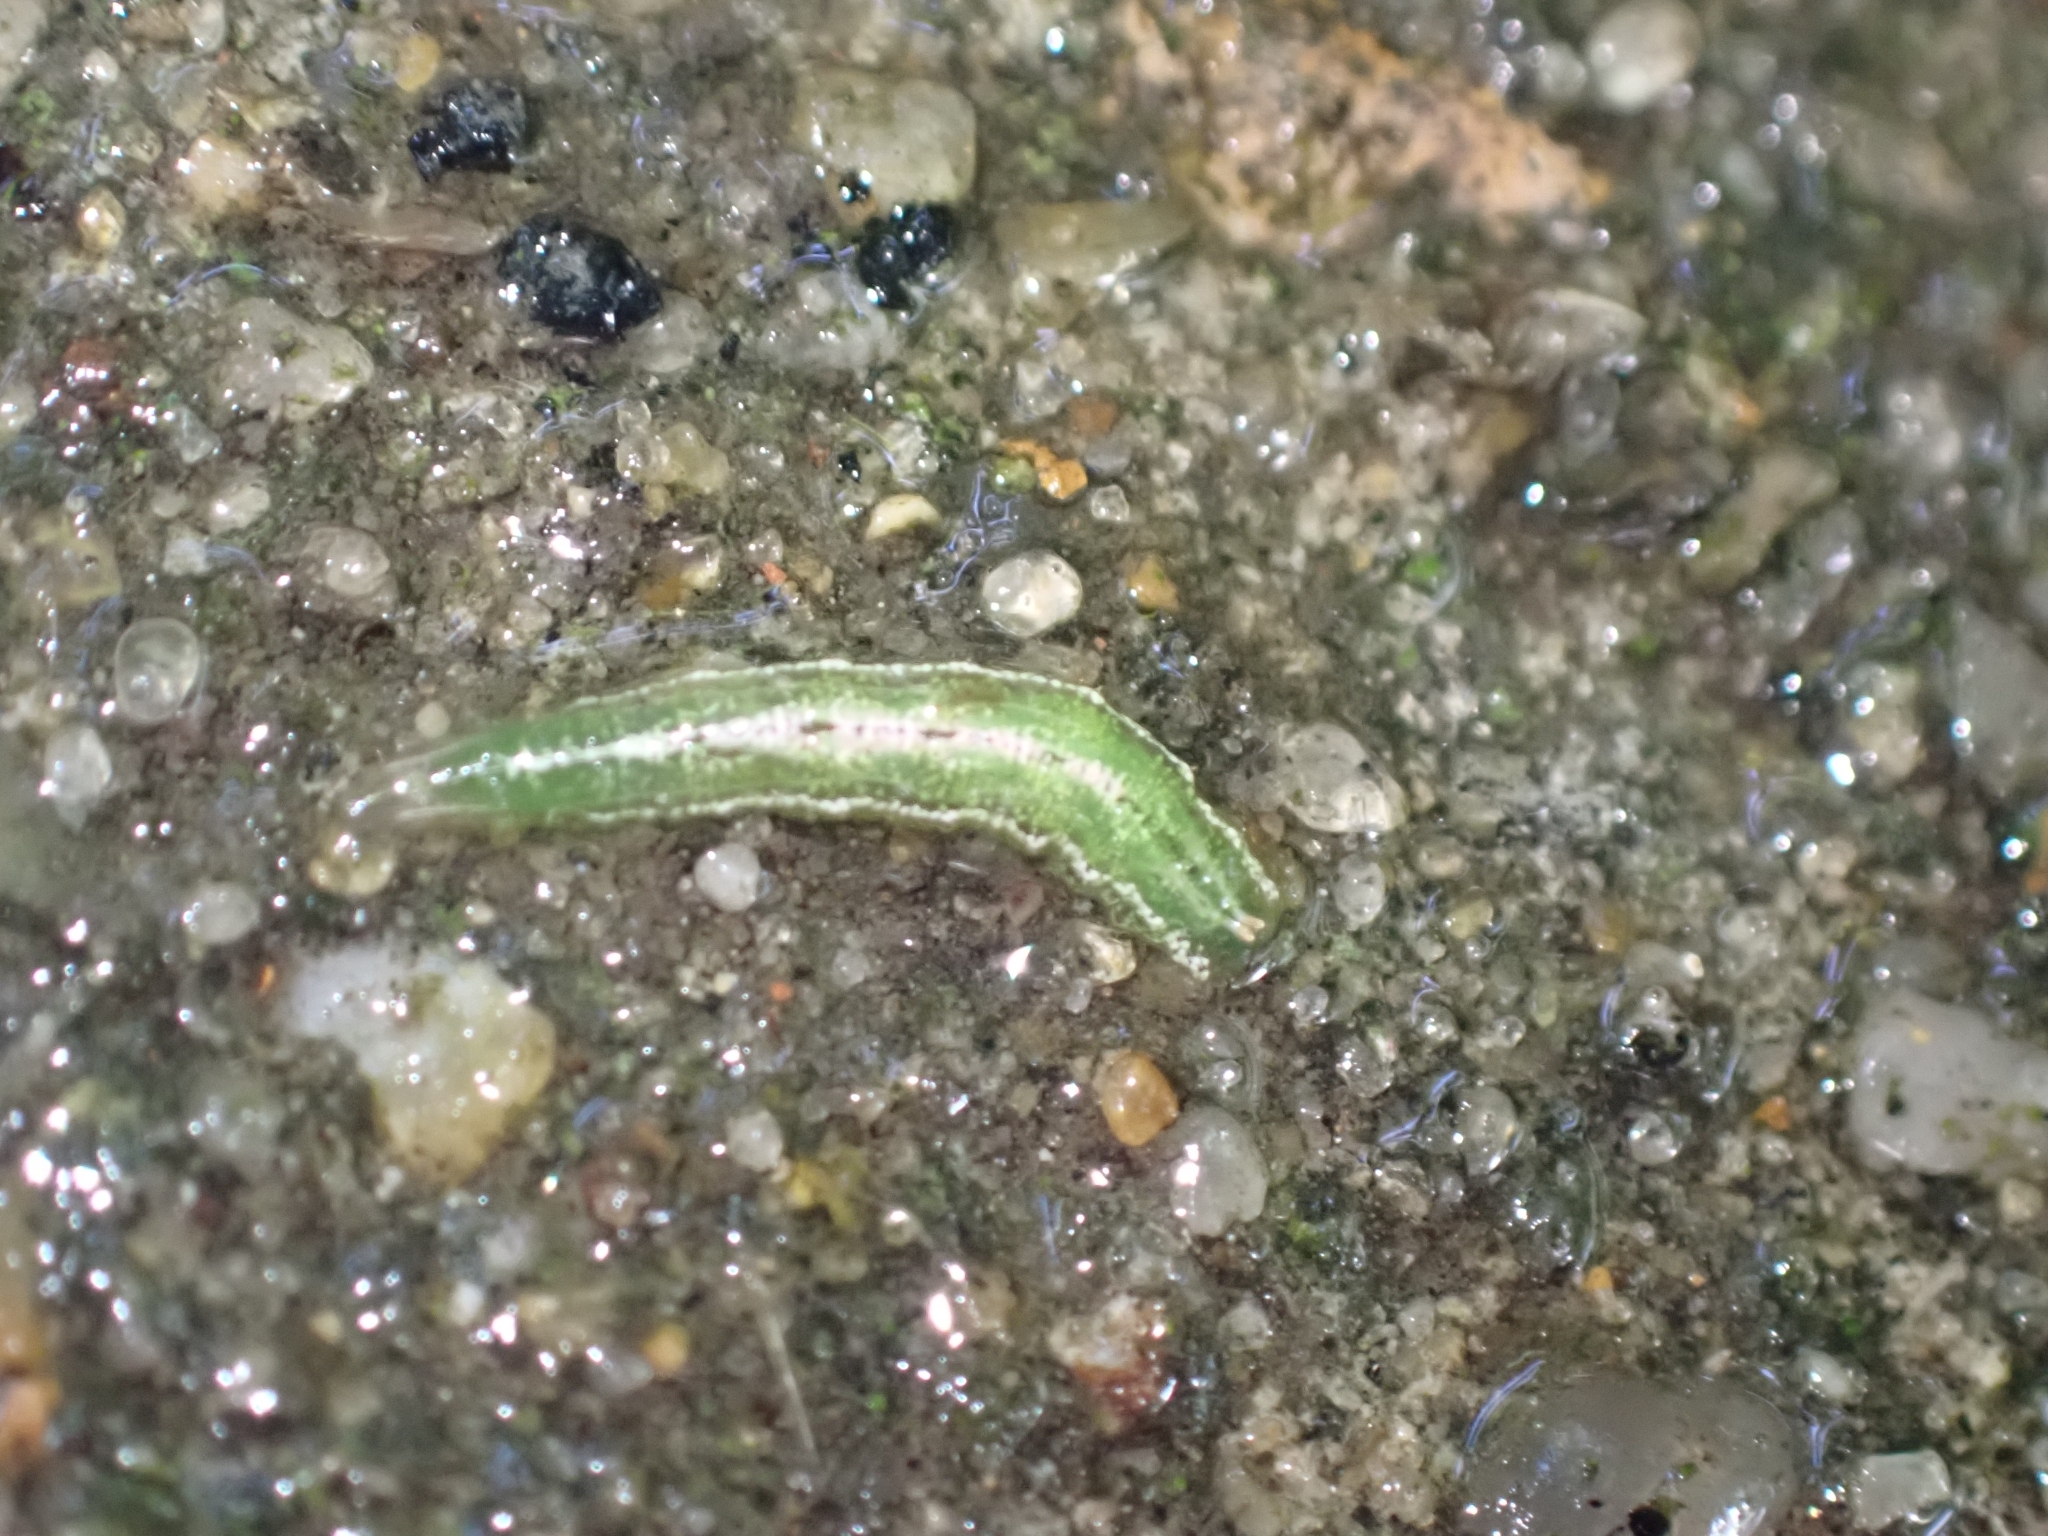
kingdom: Animalia
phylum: Arthropoda
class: Insecta
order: Diptera
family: Syrphidae
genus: Platycheirus
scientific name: Platycheirus
